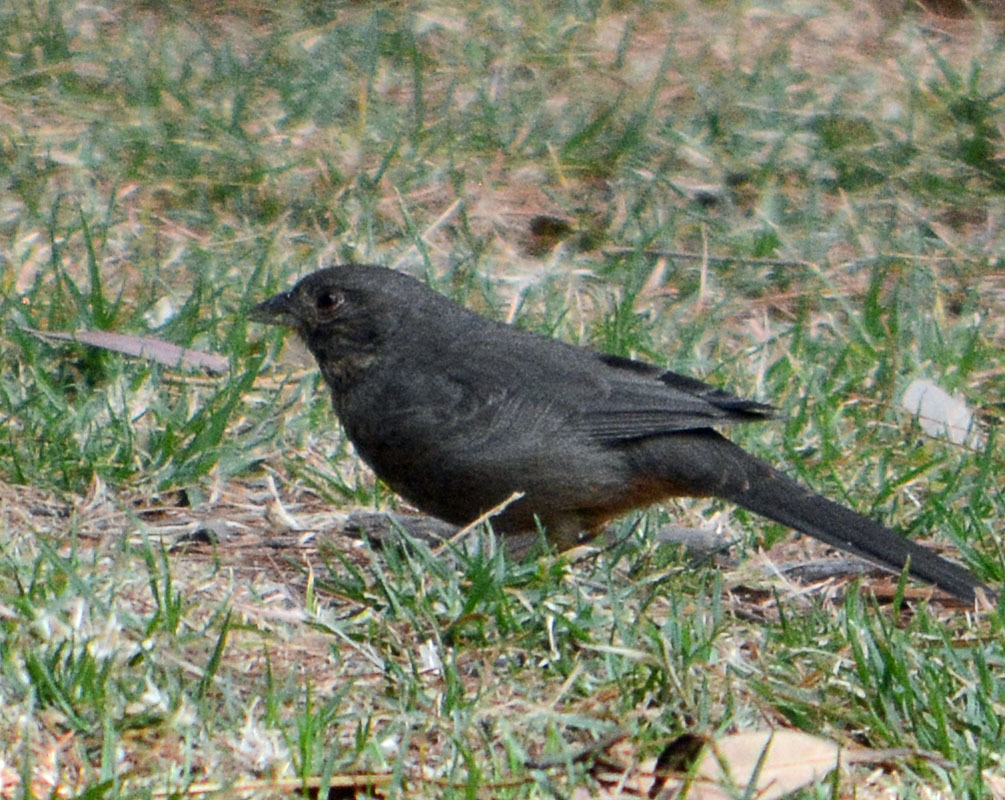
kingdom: Animalia
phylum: Chordata
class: Aves
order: Passeriformes
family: Passerellidae
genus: Melozone
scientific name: Melozone fusca
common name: Canyon towhee
